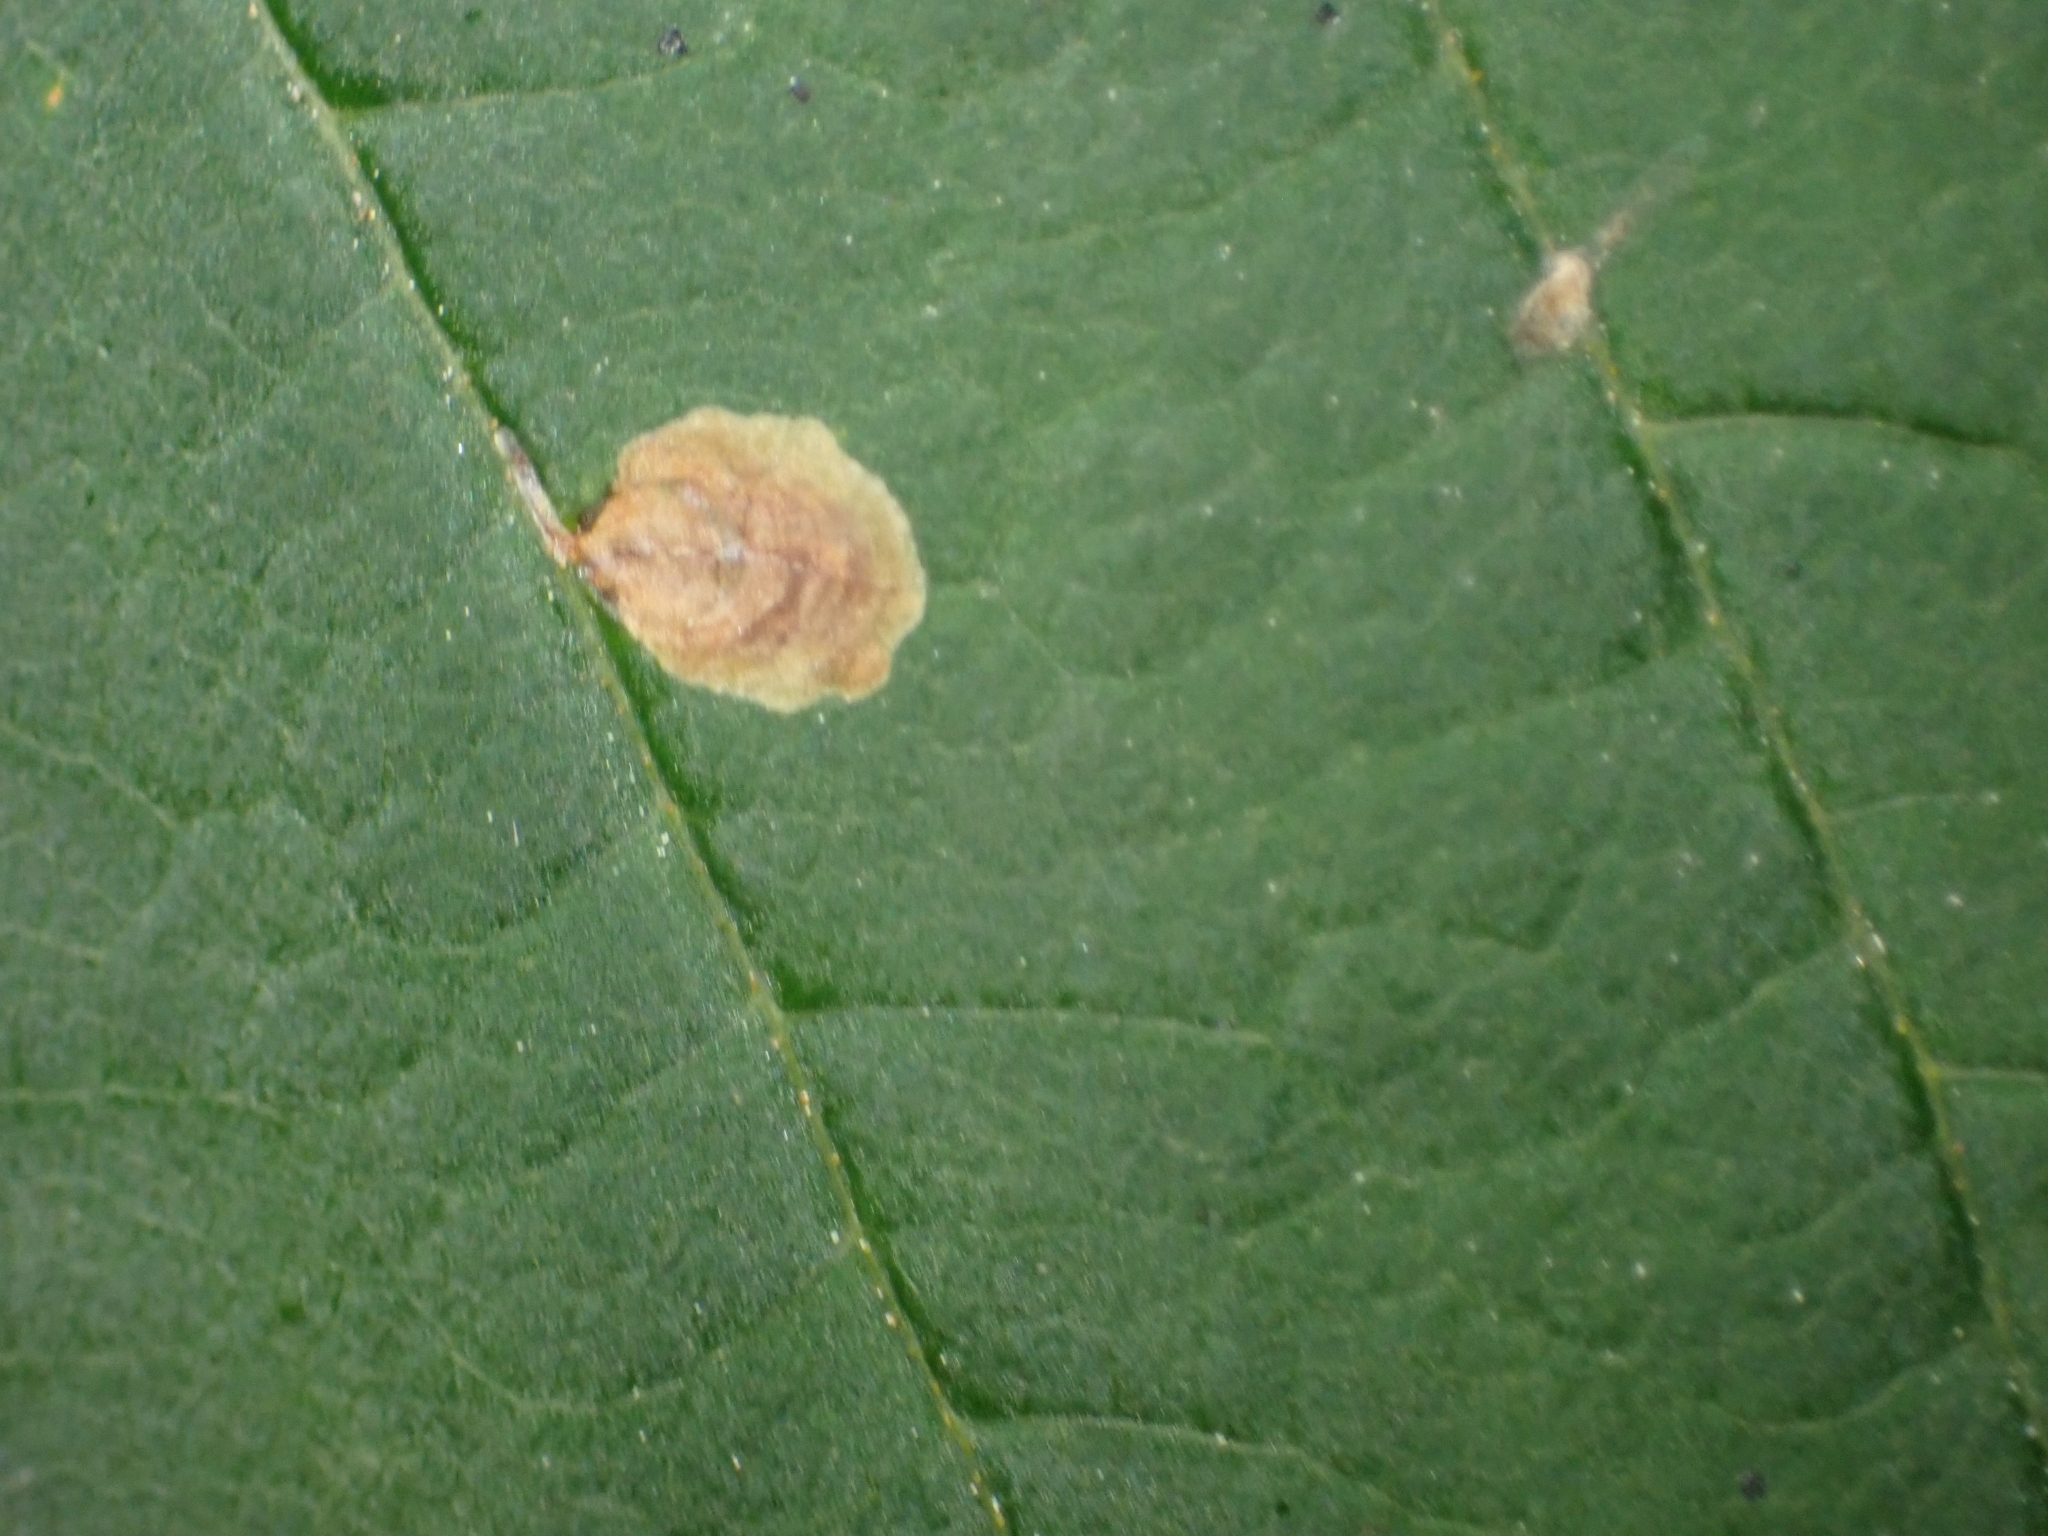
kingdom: Animalia
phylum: Arthropoda
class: Insecta
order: Lepidoptera
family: Gracillariidae
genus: Cameraria
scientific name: Cameraria ohridella
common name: Horse-chestnut leaf-miner
